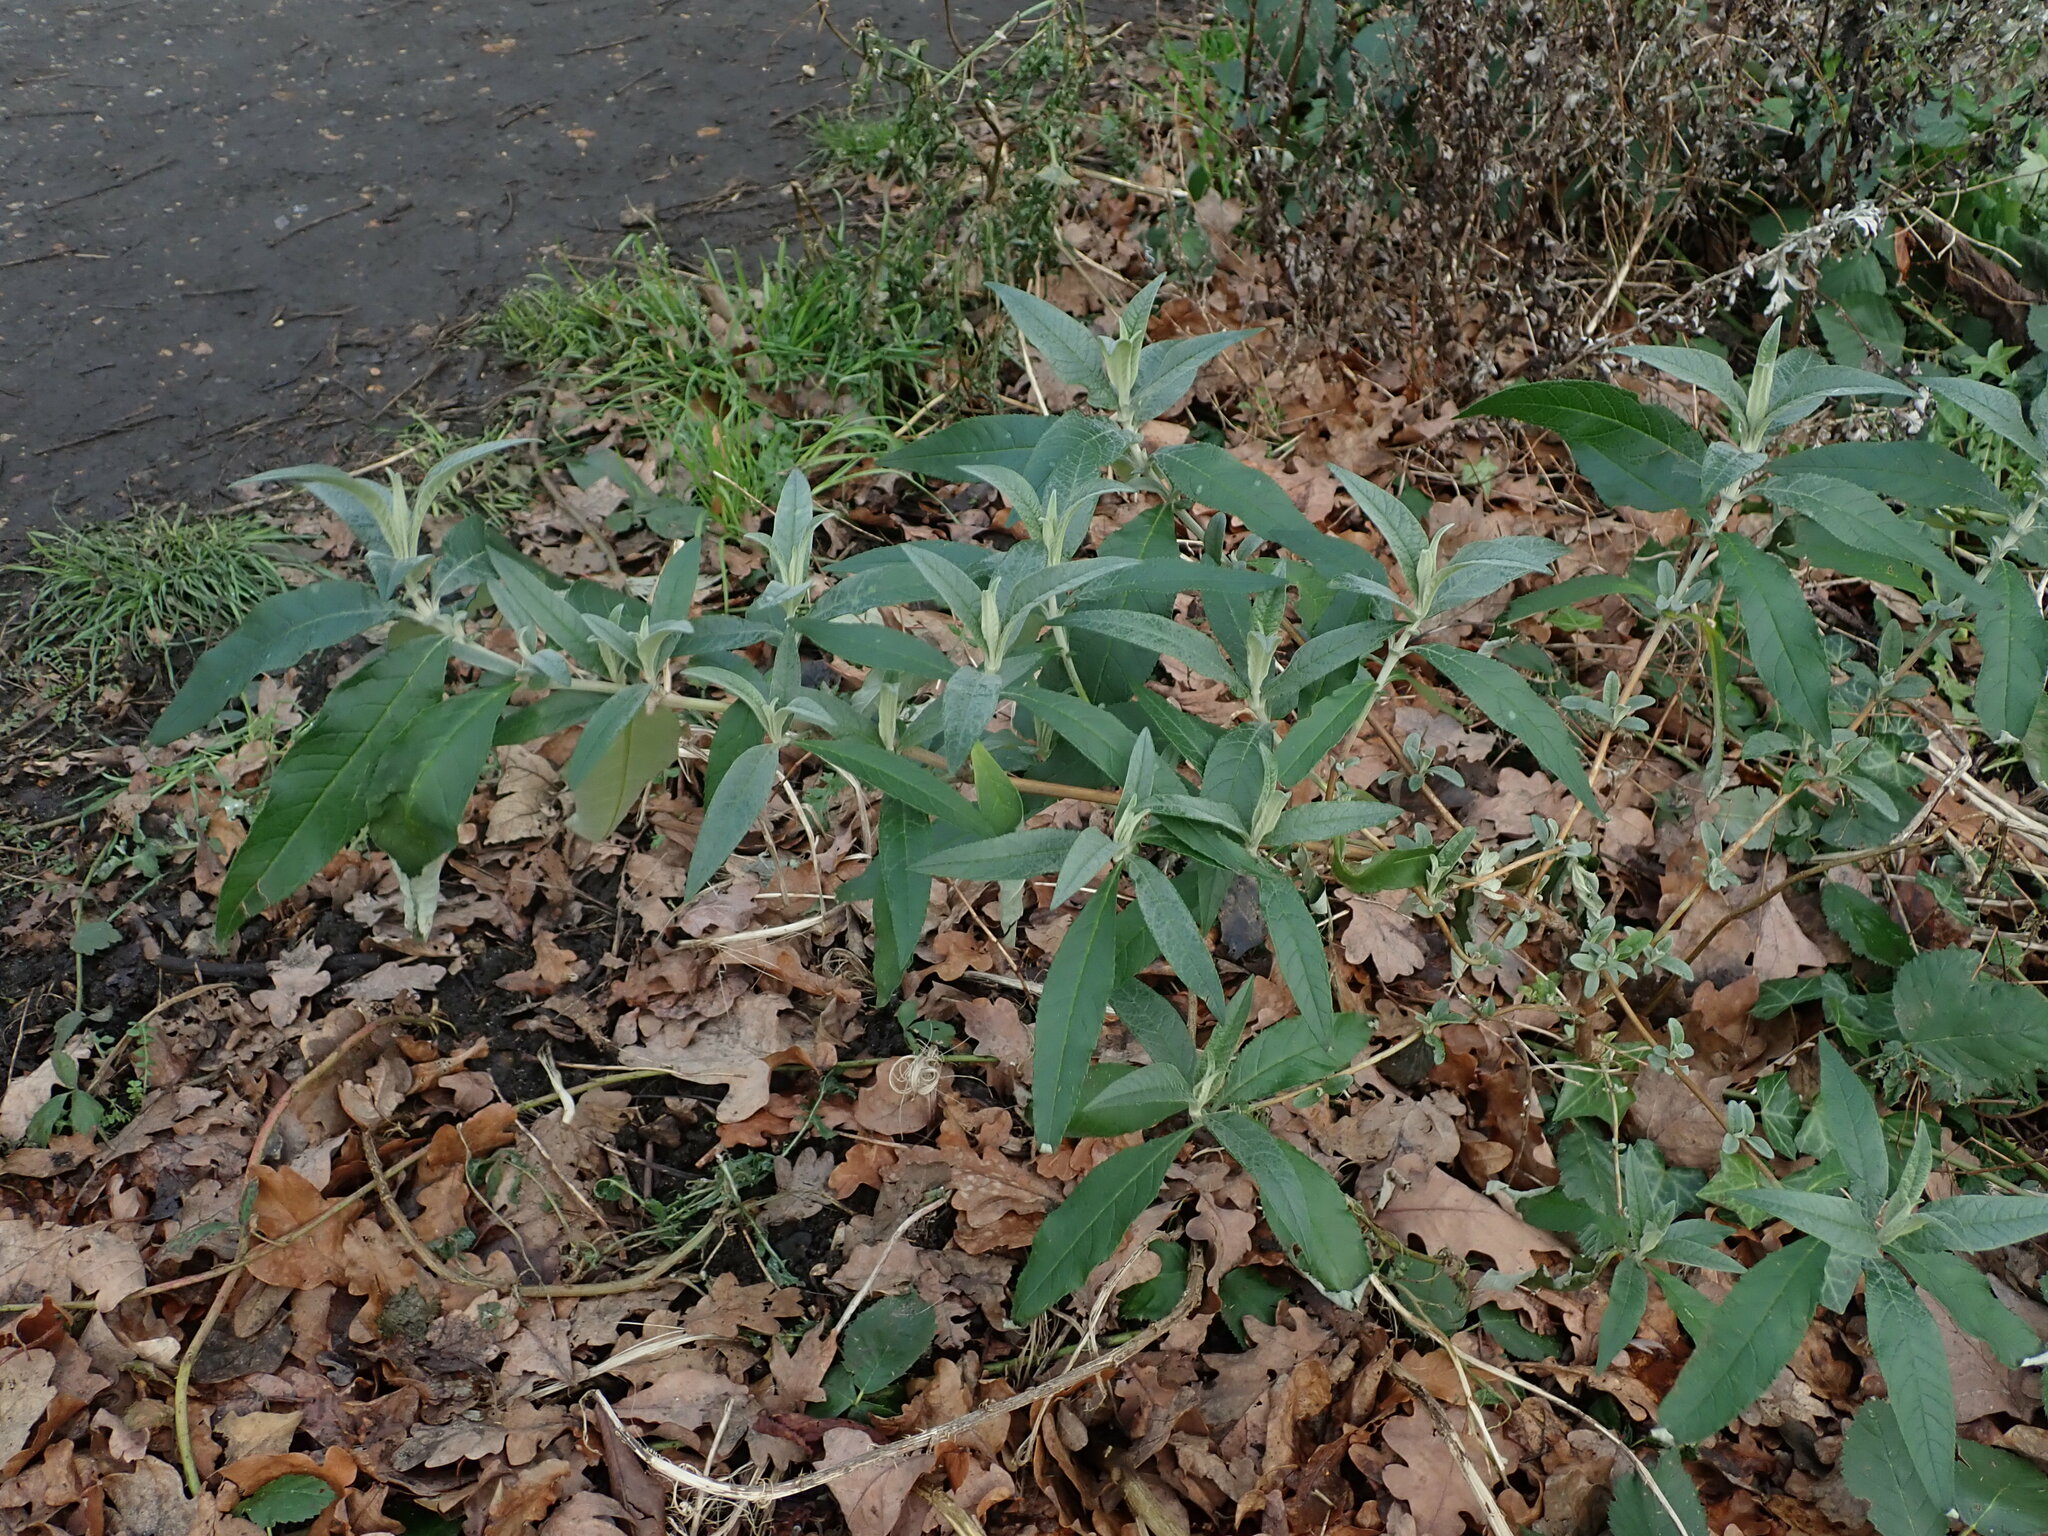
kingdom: Plantae
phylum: Tracheophyta
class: Magnoliopsida
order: Lamiales
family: Scrophulariaceae
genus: Buddleja
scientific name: Buddleja davidii
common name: Butterfly-bush
